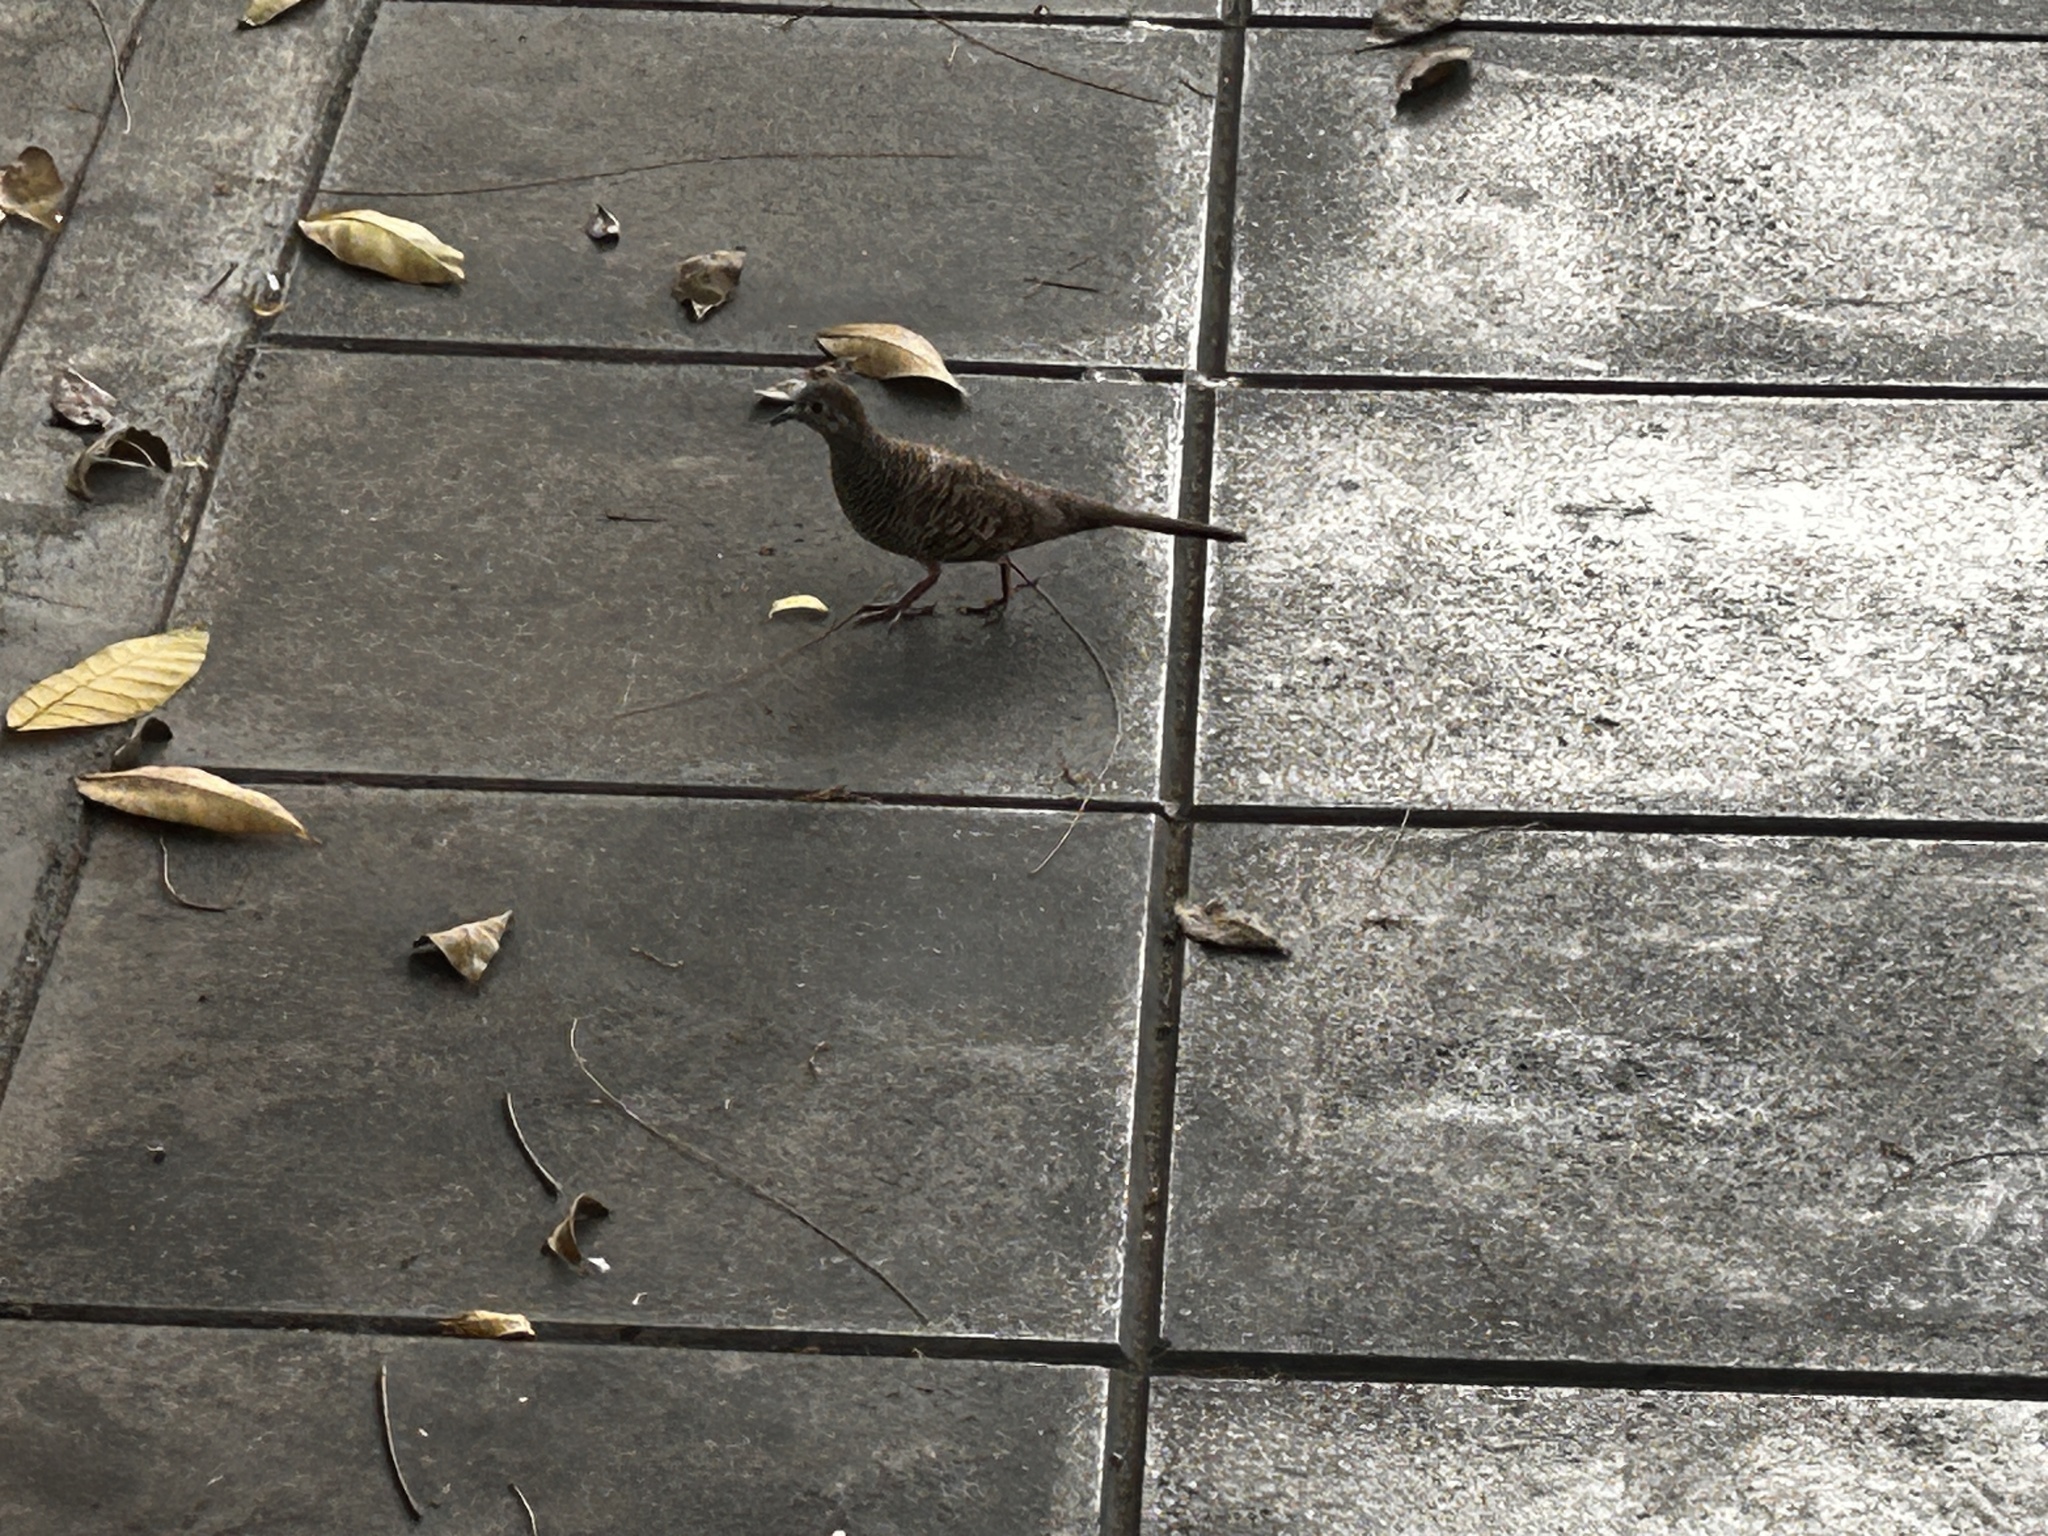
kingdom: Animalia
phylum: Chordata
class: Aves
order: Columbiformes
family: Columbidae
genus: Geopelia
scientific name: Geopelia striata
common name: Zebra dove
